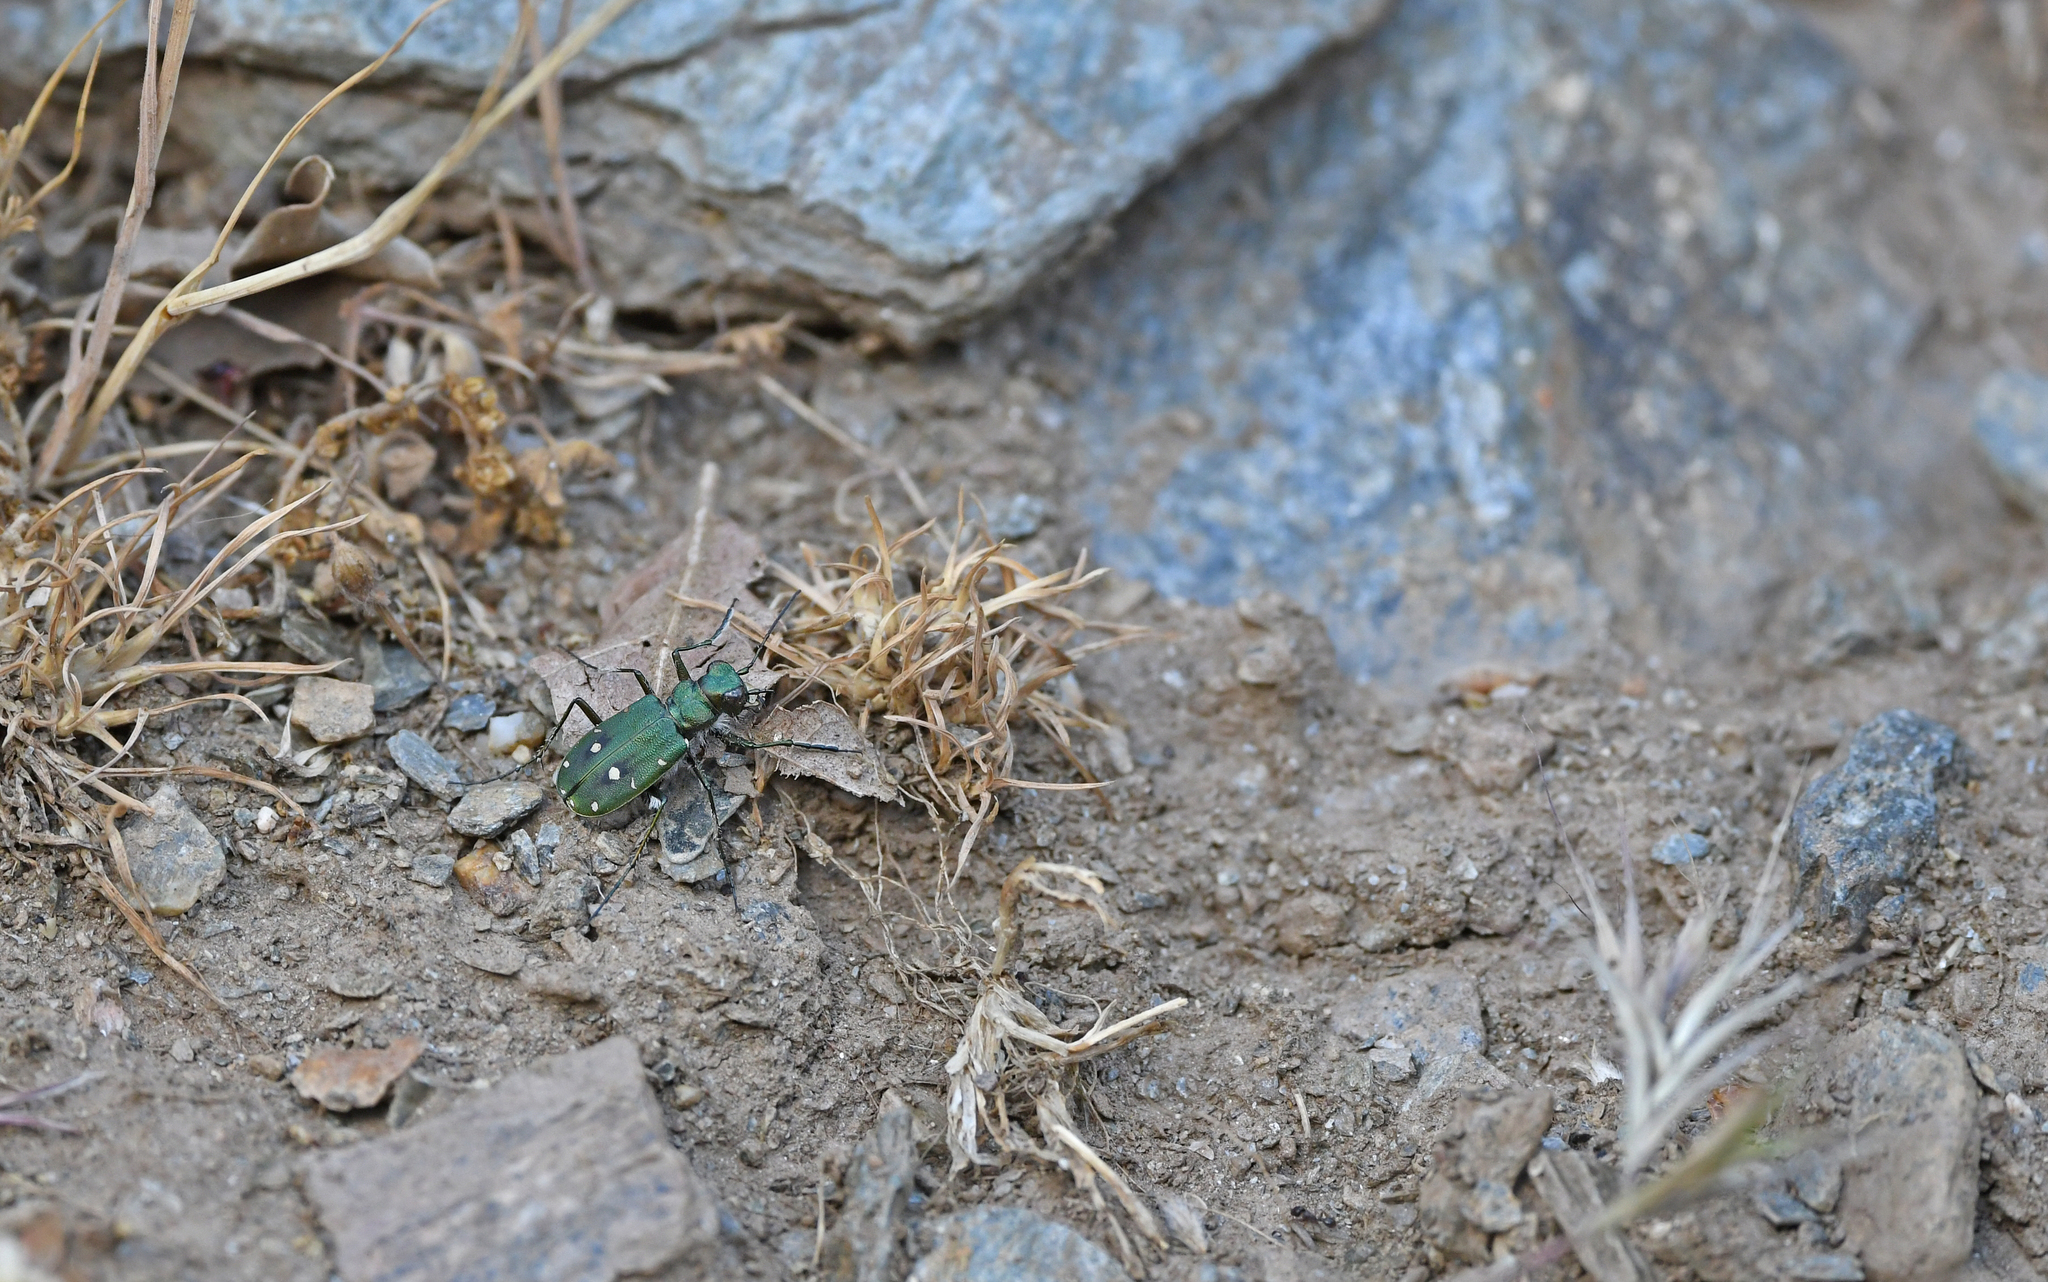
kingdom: Animalia
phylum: Arthropoda
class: Insecta
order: Coleoptera
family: Carabidae
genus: Cicindela
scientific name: Cicindela campestris
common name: Common tiger beetle
